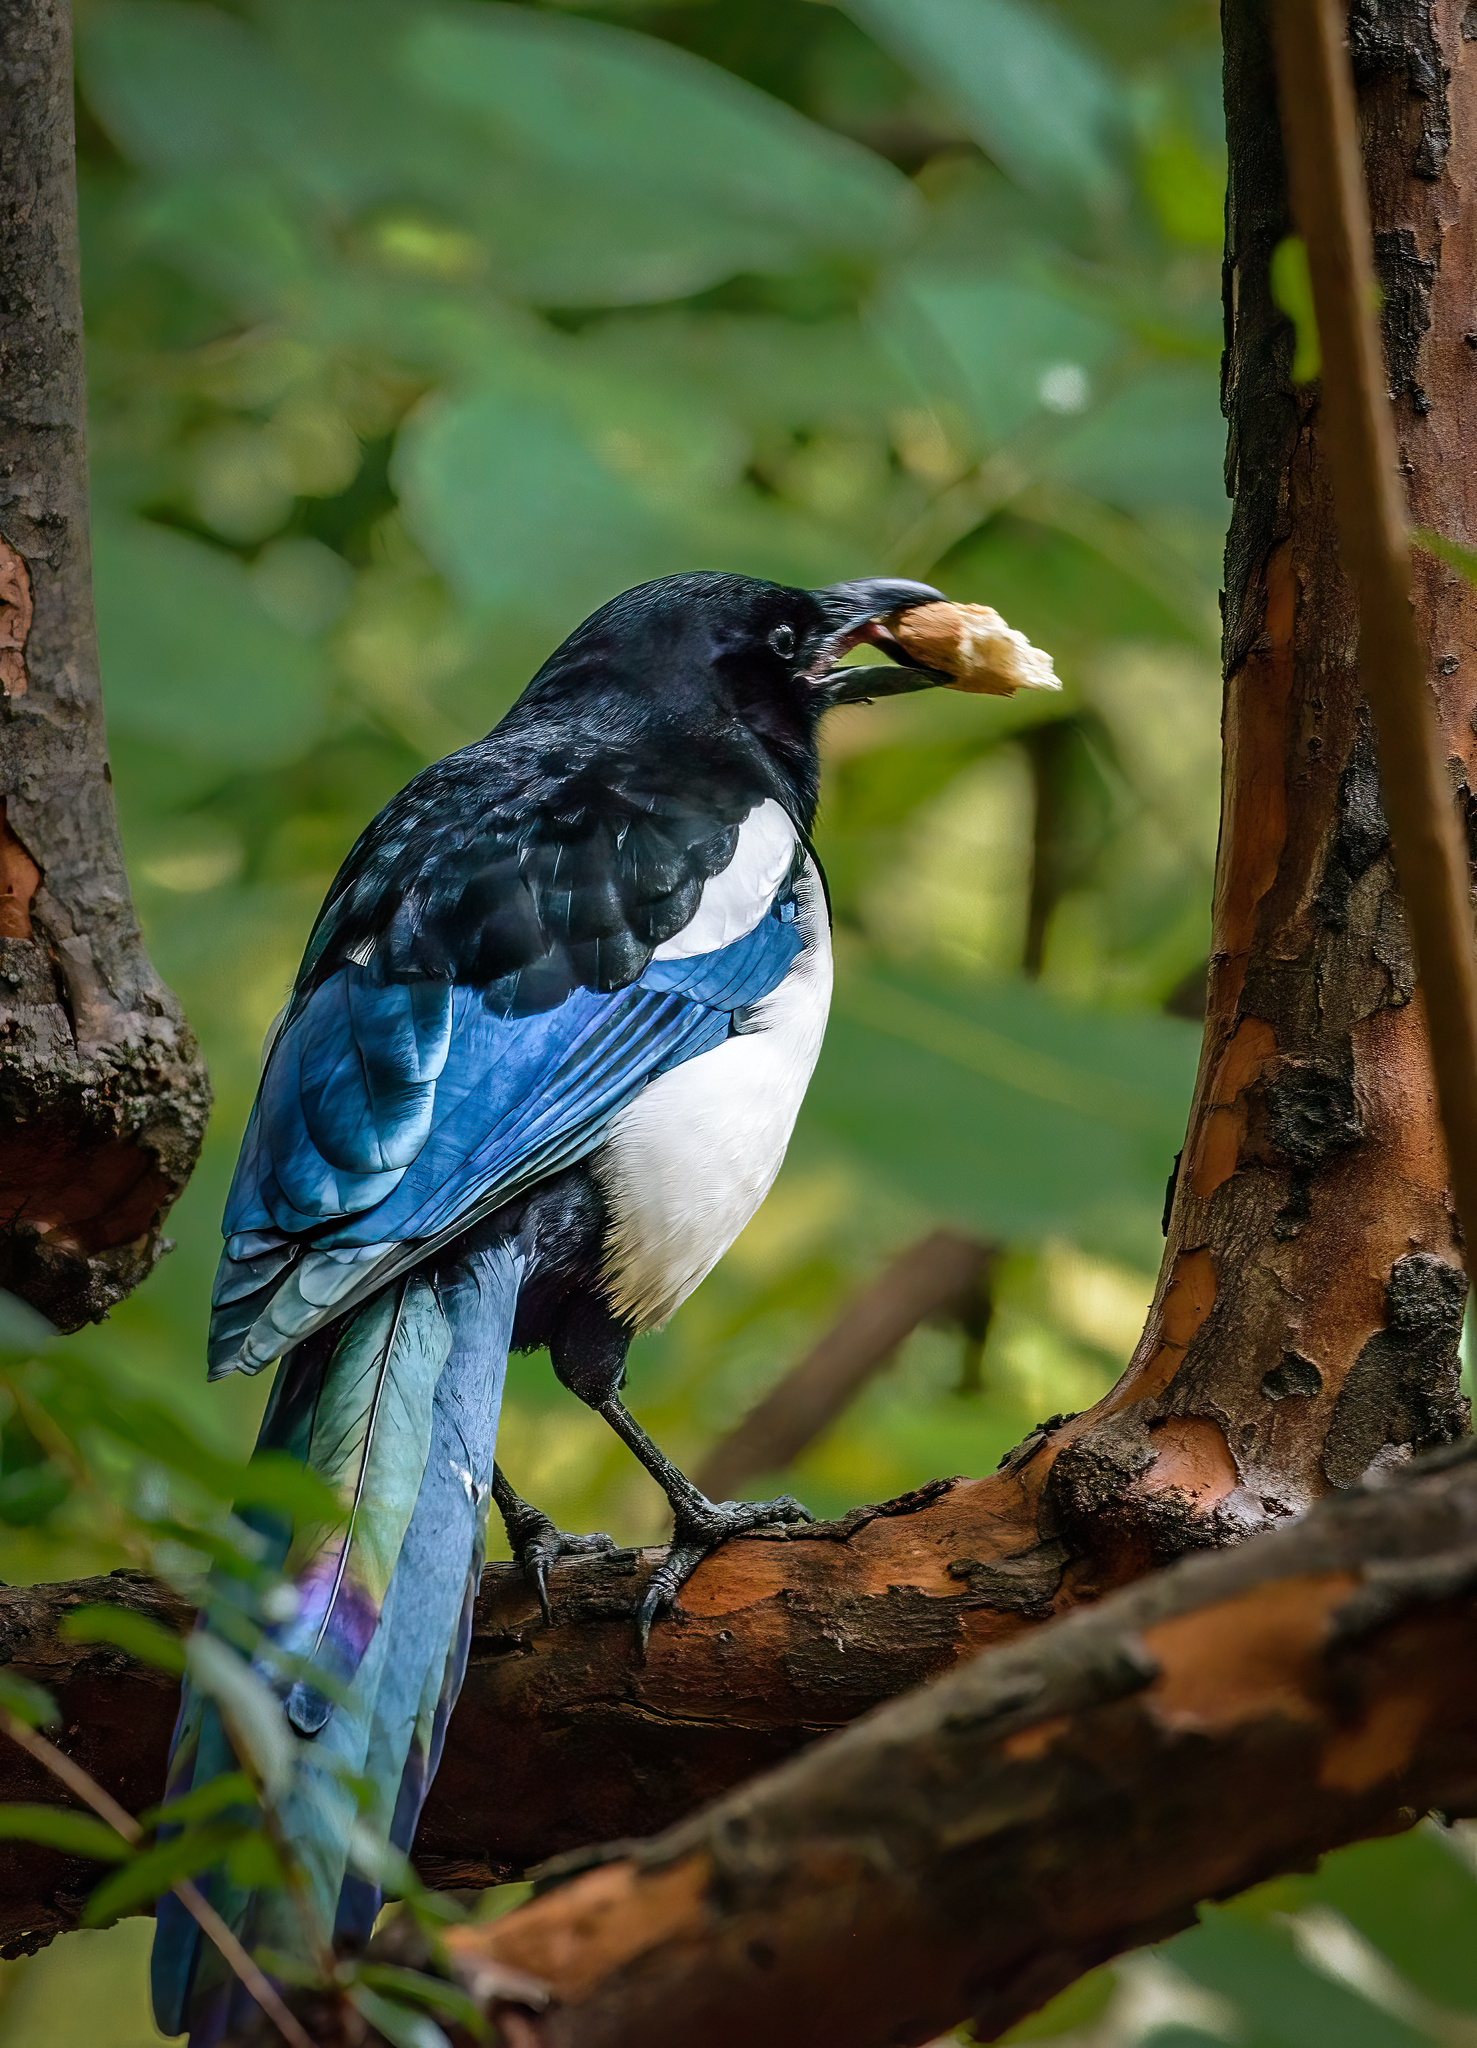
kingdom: Animalia
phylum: Chordata
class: Aves
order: Passeriformes
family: Corvidae
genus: Pica
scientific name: Pica pica
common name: Eurasian magpie
